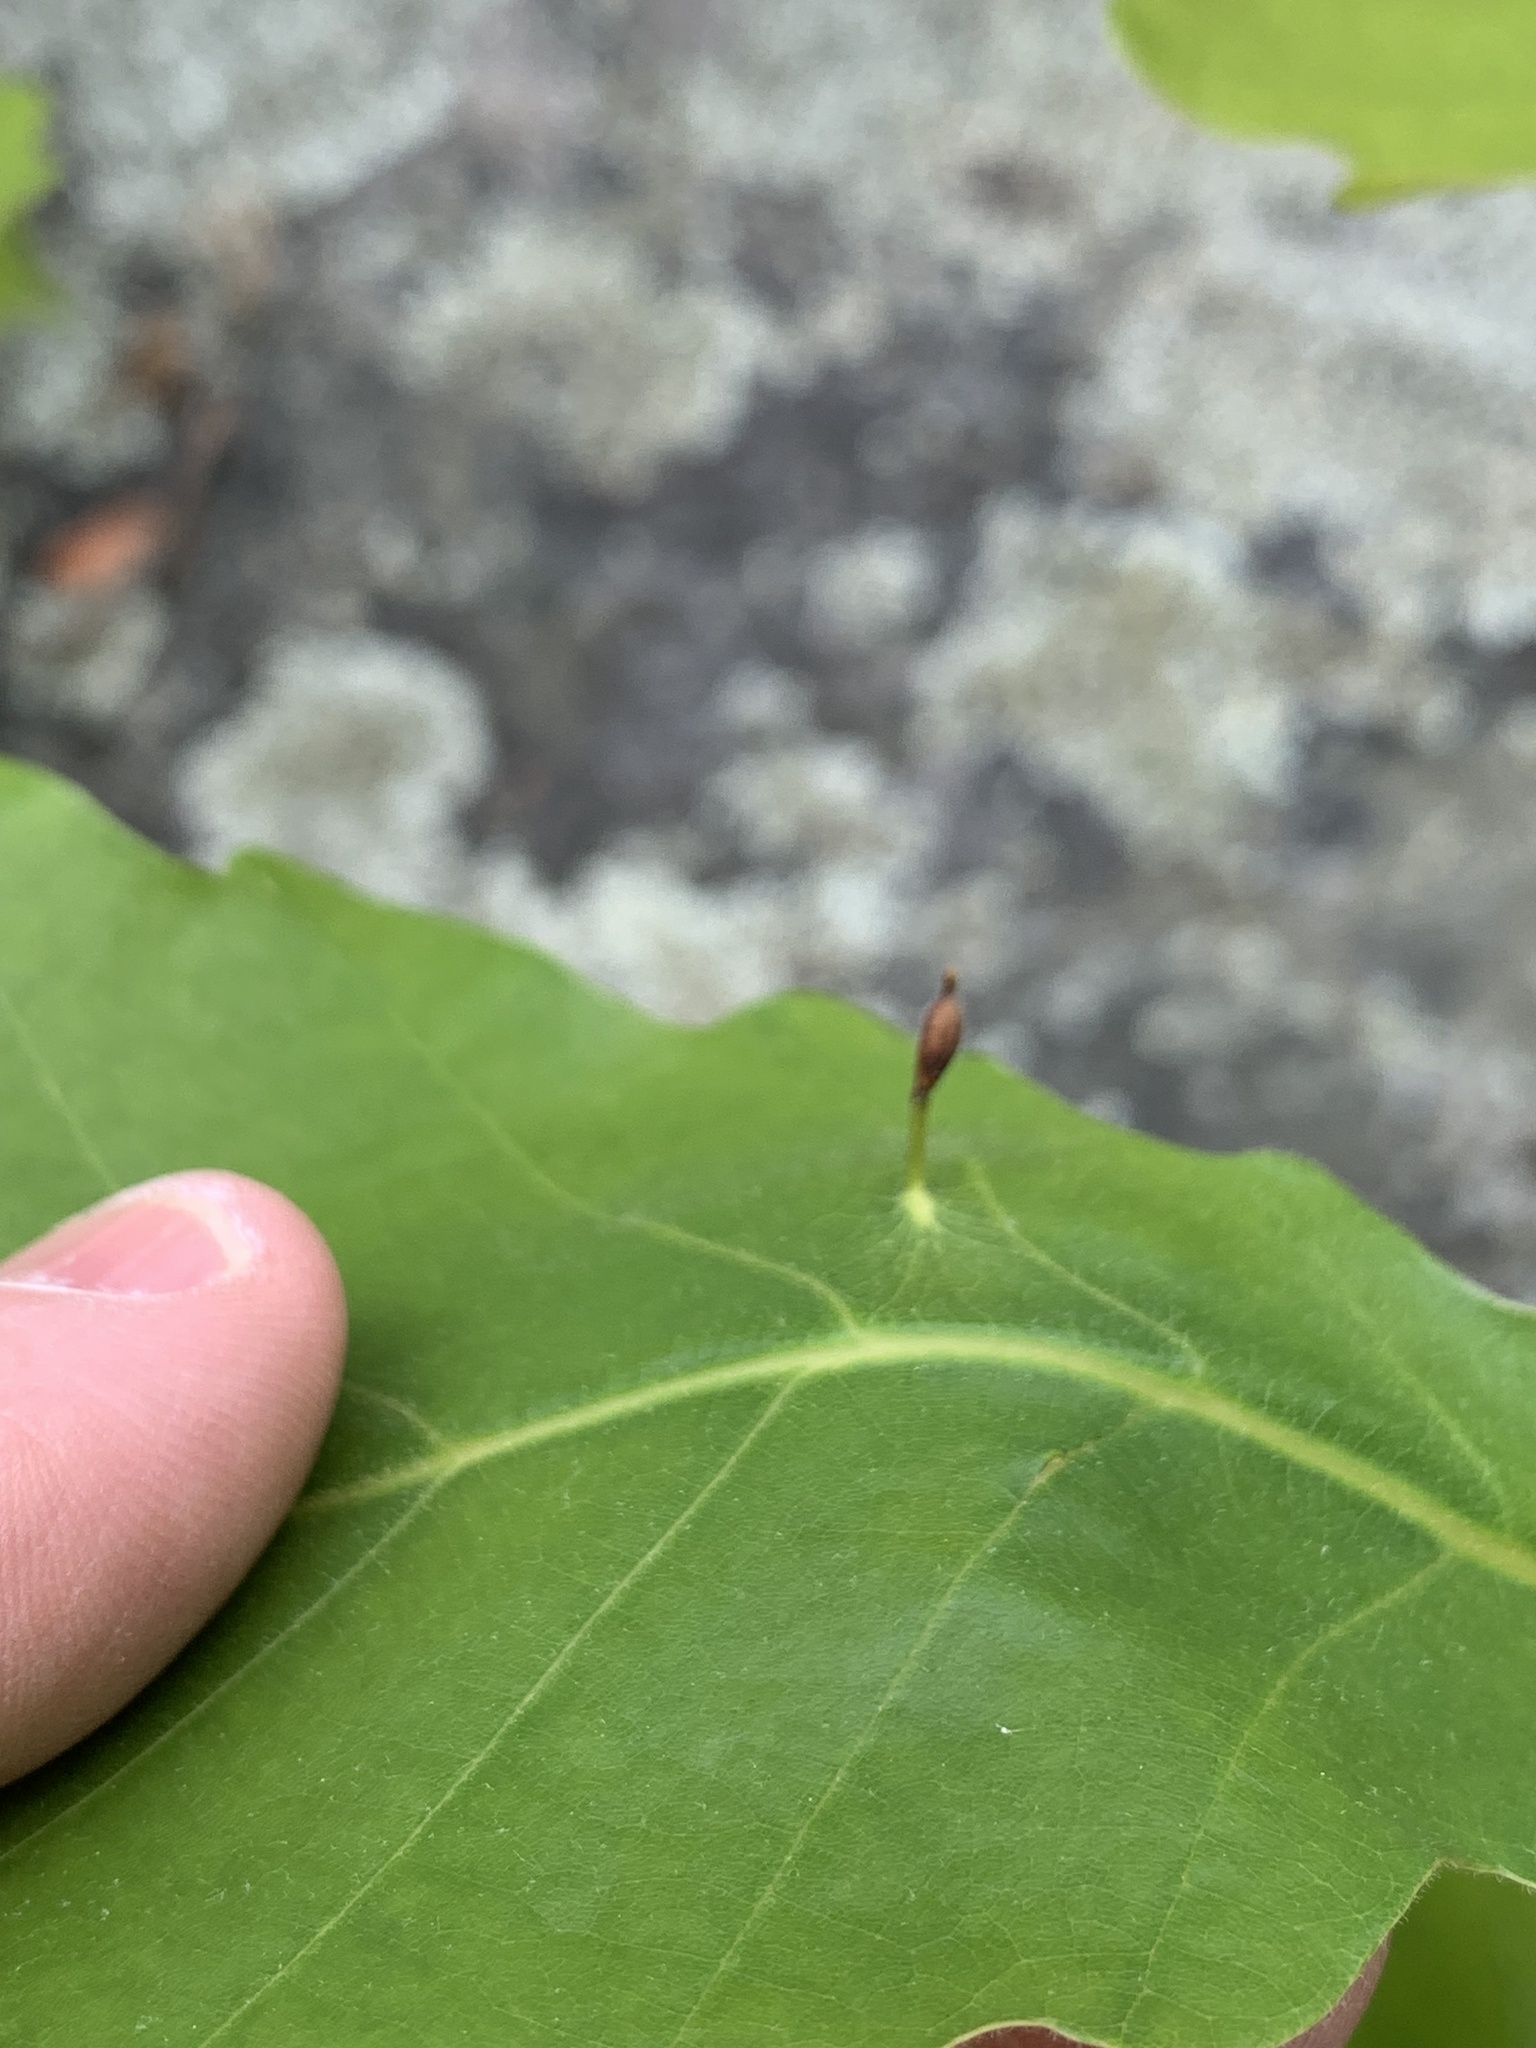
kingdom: Animalia
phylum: Arthropoda
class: Insecta
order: Hymenoptera
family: Cynipidae
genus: Andricus
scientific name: Andricus
